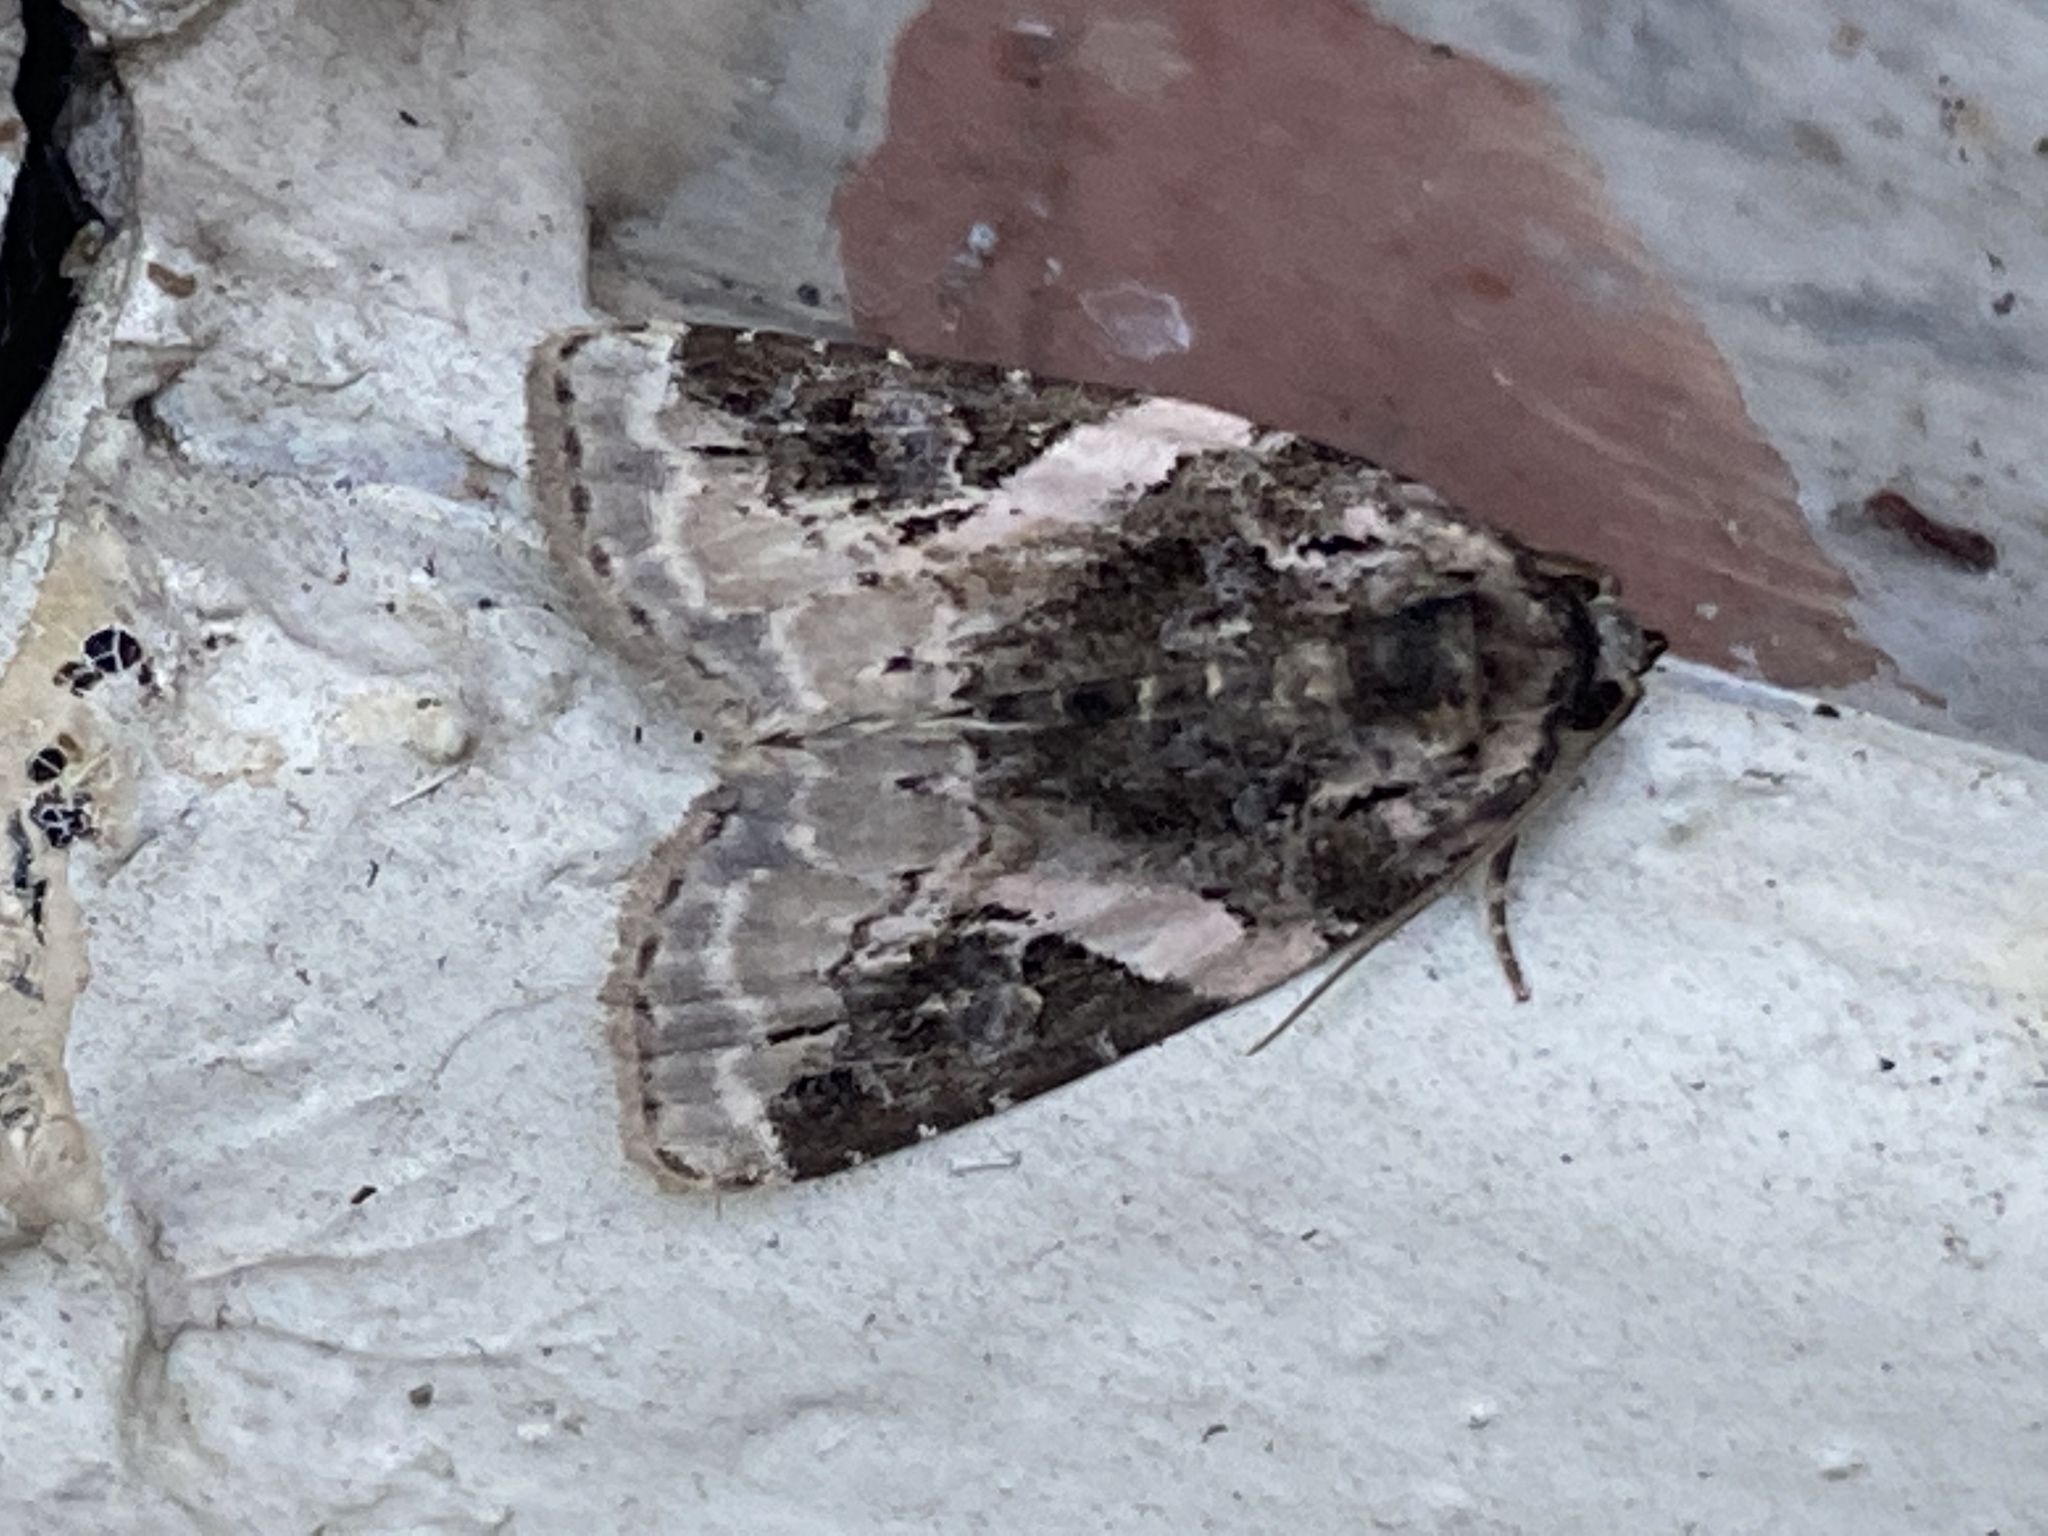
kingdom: Animalia
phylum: Arthropoda
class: Insecta
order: Lepidoptera
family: Noctuidae
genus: Pseudeustrotia
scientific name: Pseudeustrotia carneola
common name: Pink-barred lithacodia moth
